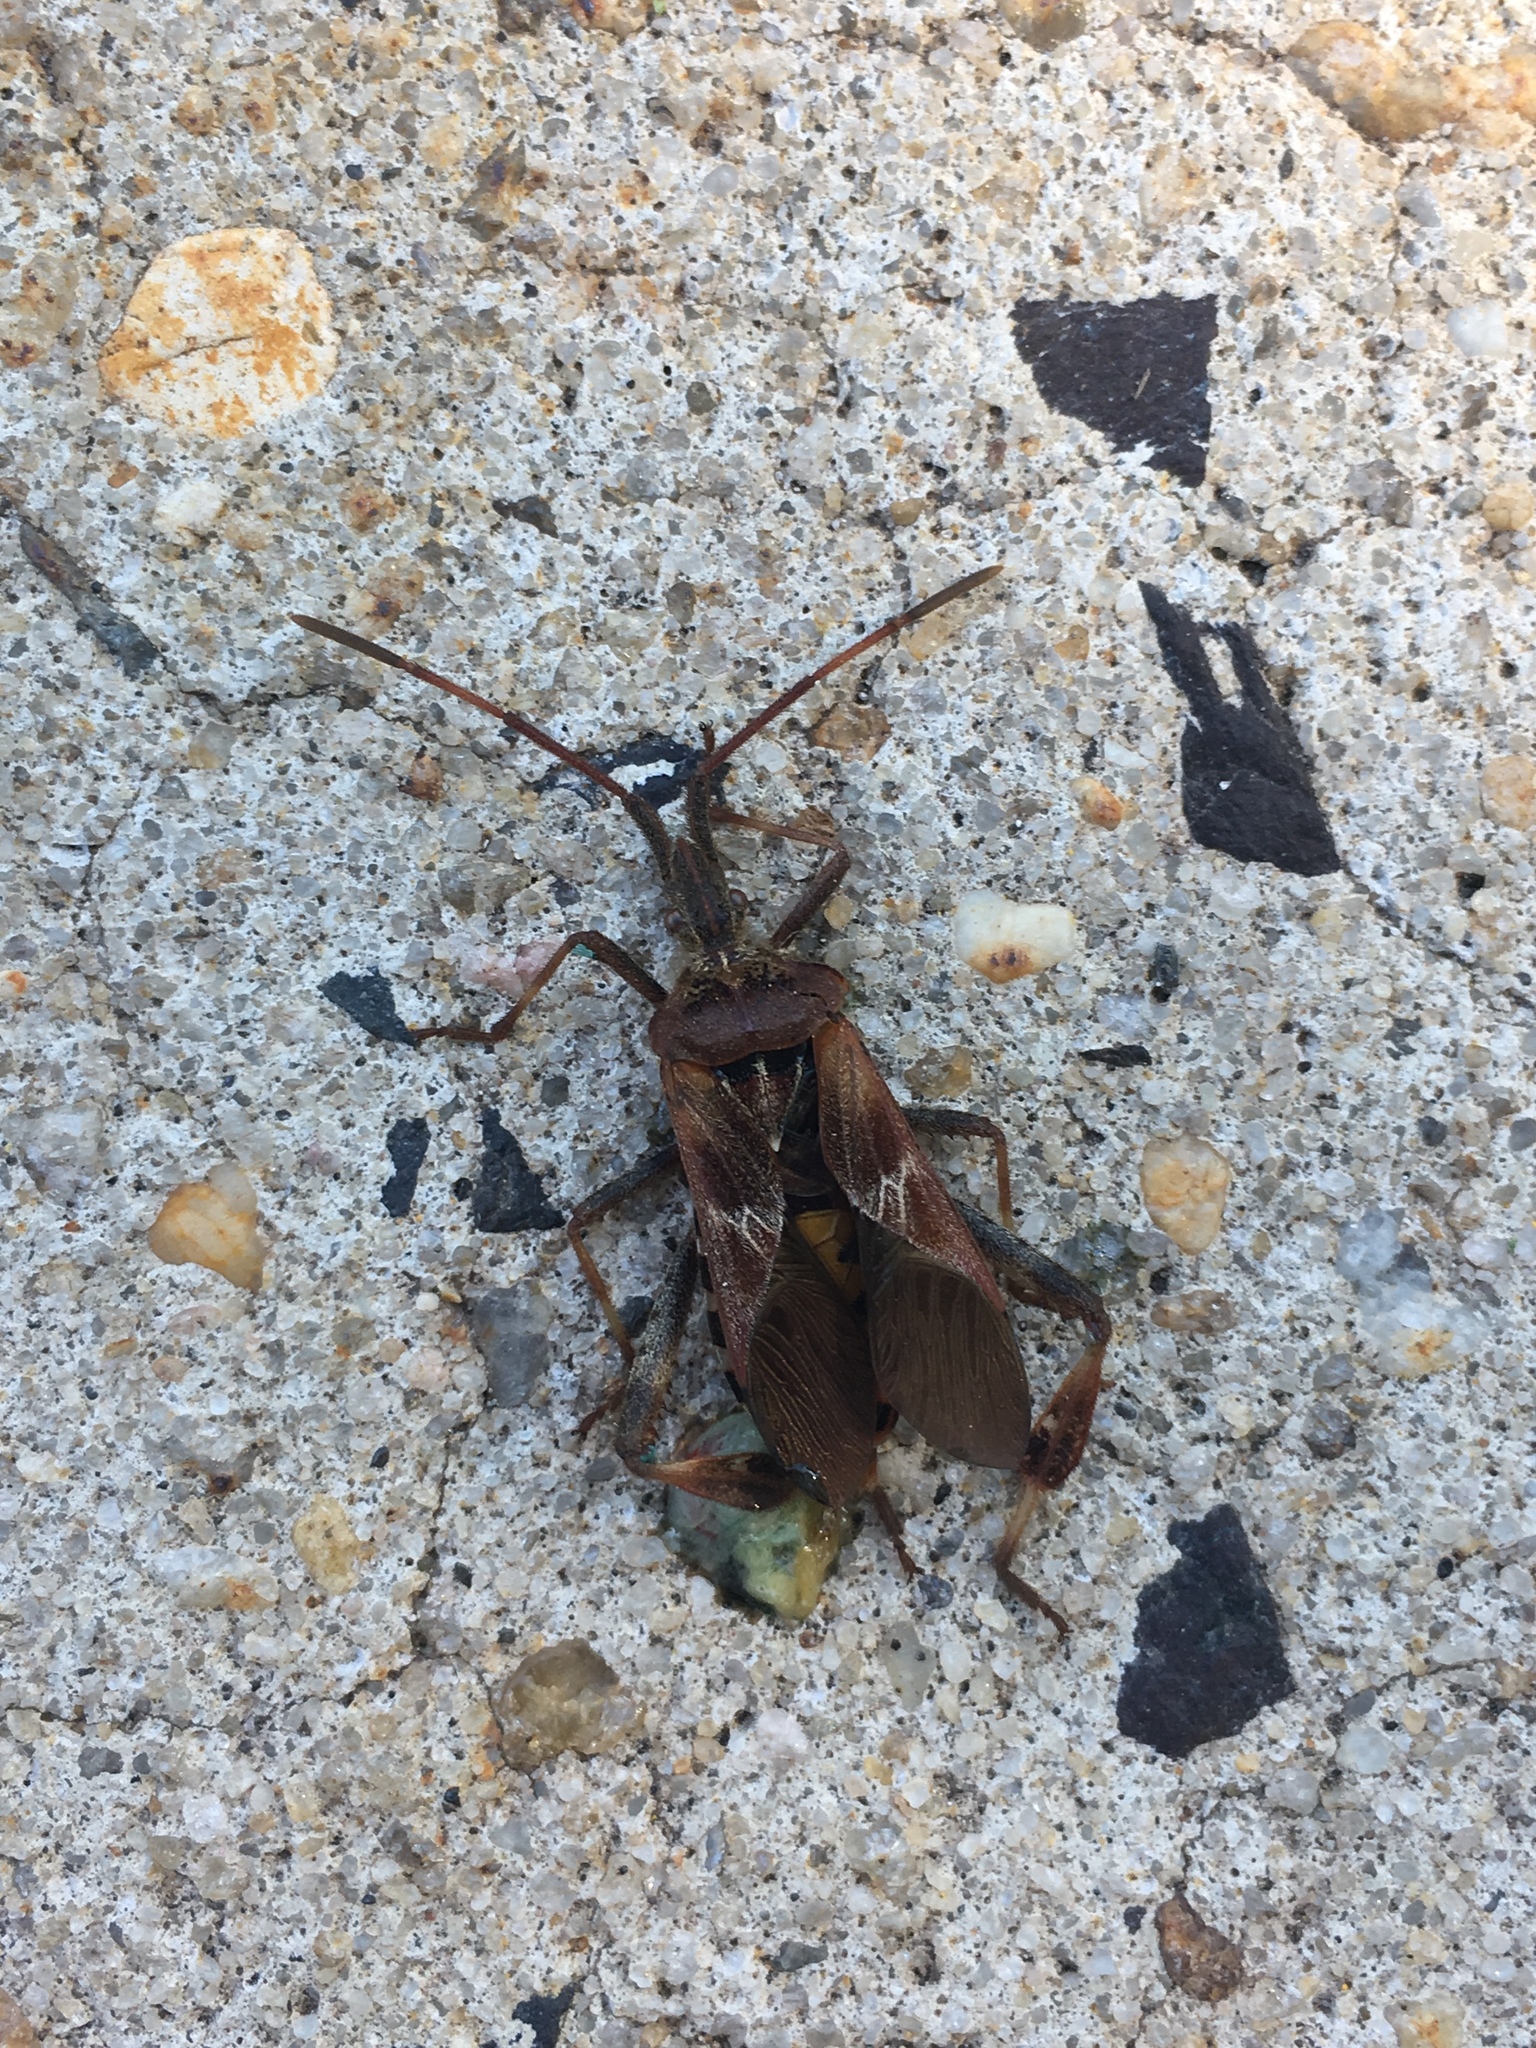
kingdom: Animalia
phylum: Arthropoda
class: Insecta
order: Hemiptera
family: Coreidae
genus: Leptoglossus
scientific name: Leptoglossus occidentalis
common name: Western conifer-seed bug
